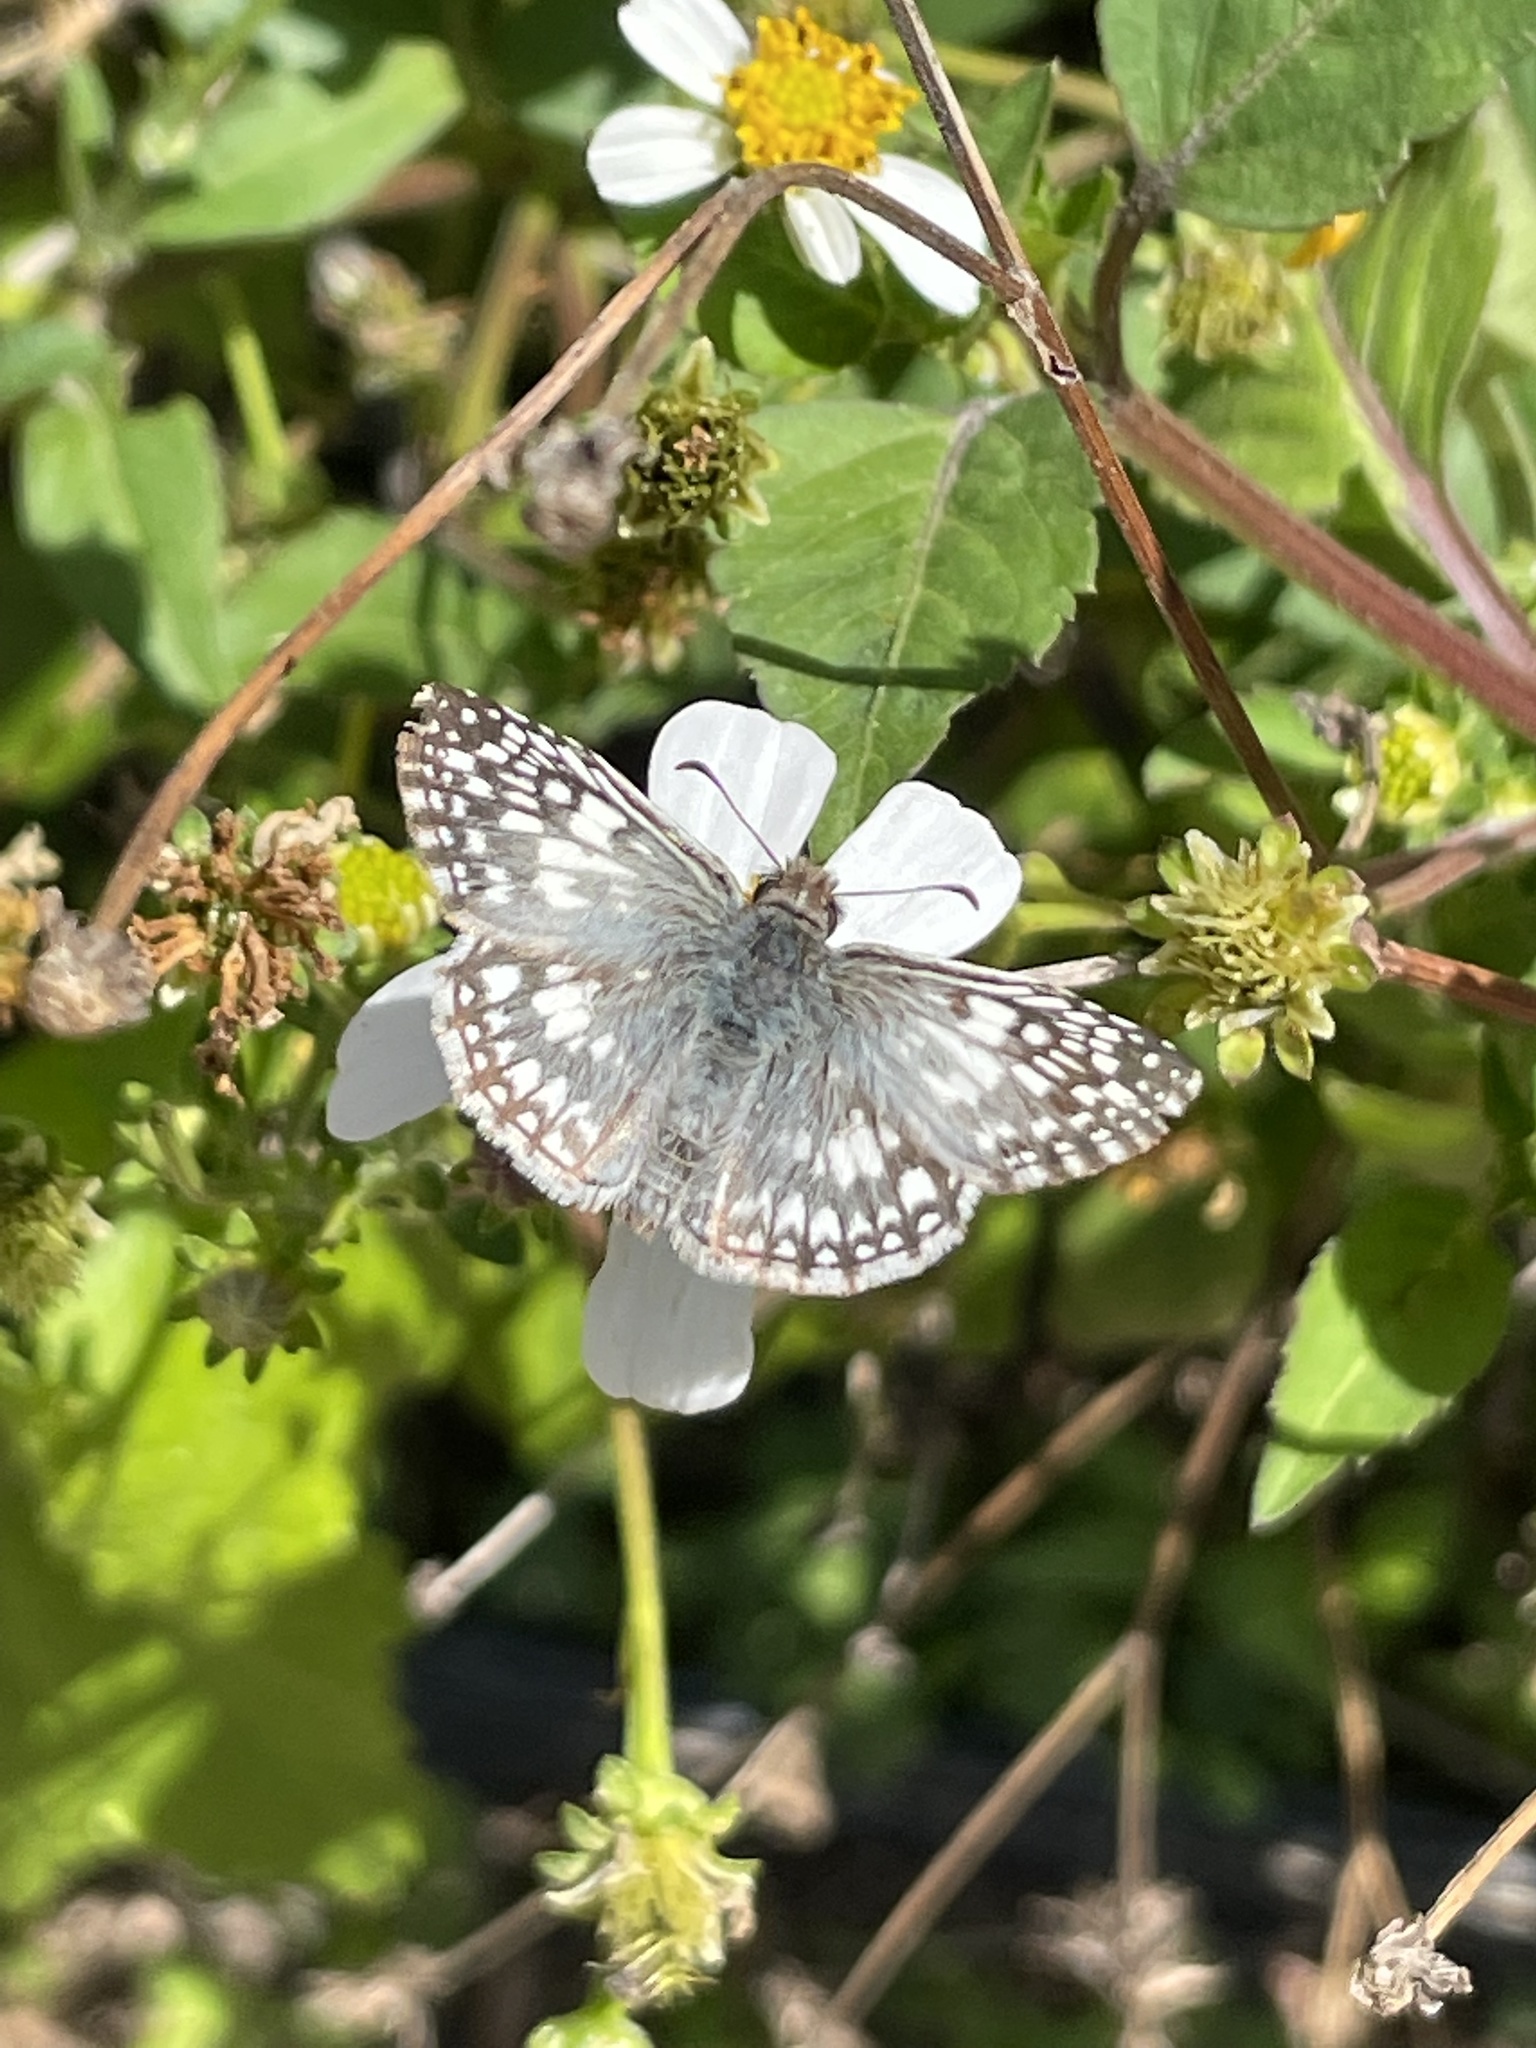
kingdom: Animalia
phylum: Arthropoda
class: Insecta
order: Lepidoptera
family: Hesperiidae
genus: Pyrgus
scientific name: Pyrgus oileus
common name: Tropical checkered-skipper
